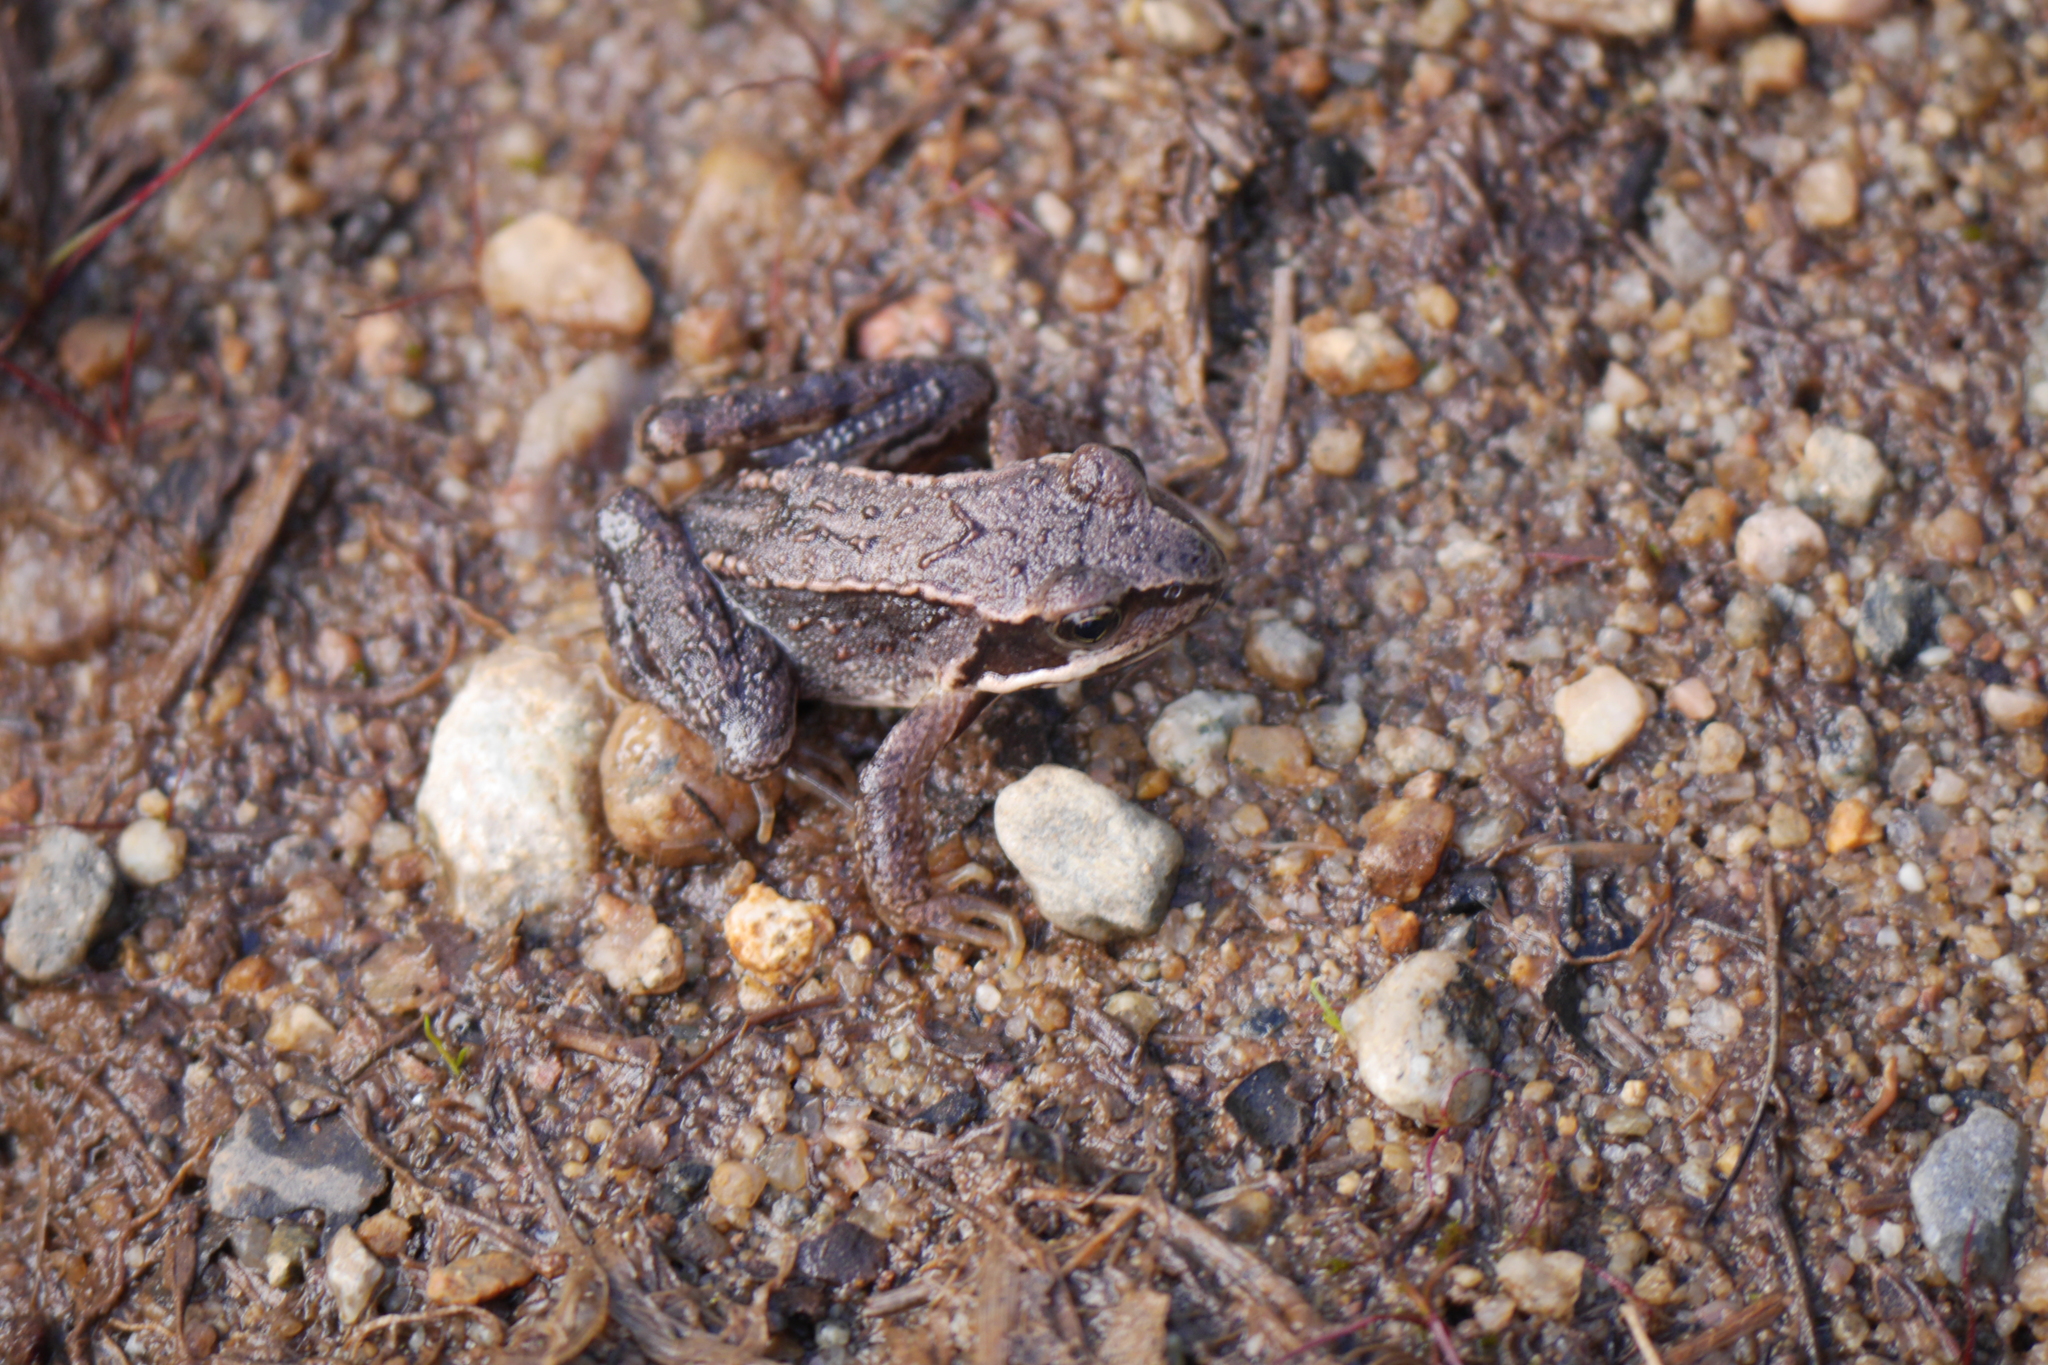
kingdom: Animalia
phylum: Chordata
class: Amphibia
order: Anura
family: Ranidae
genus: Rana
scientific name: Rana temporaria
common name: Common frog
